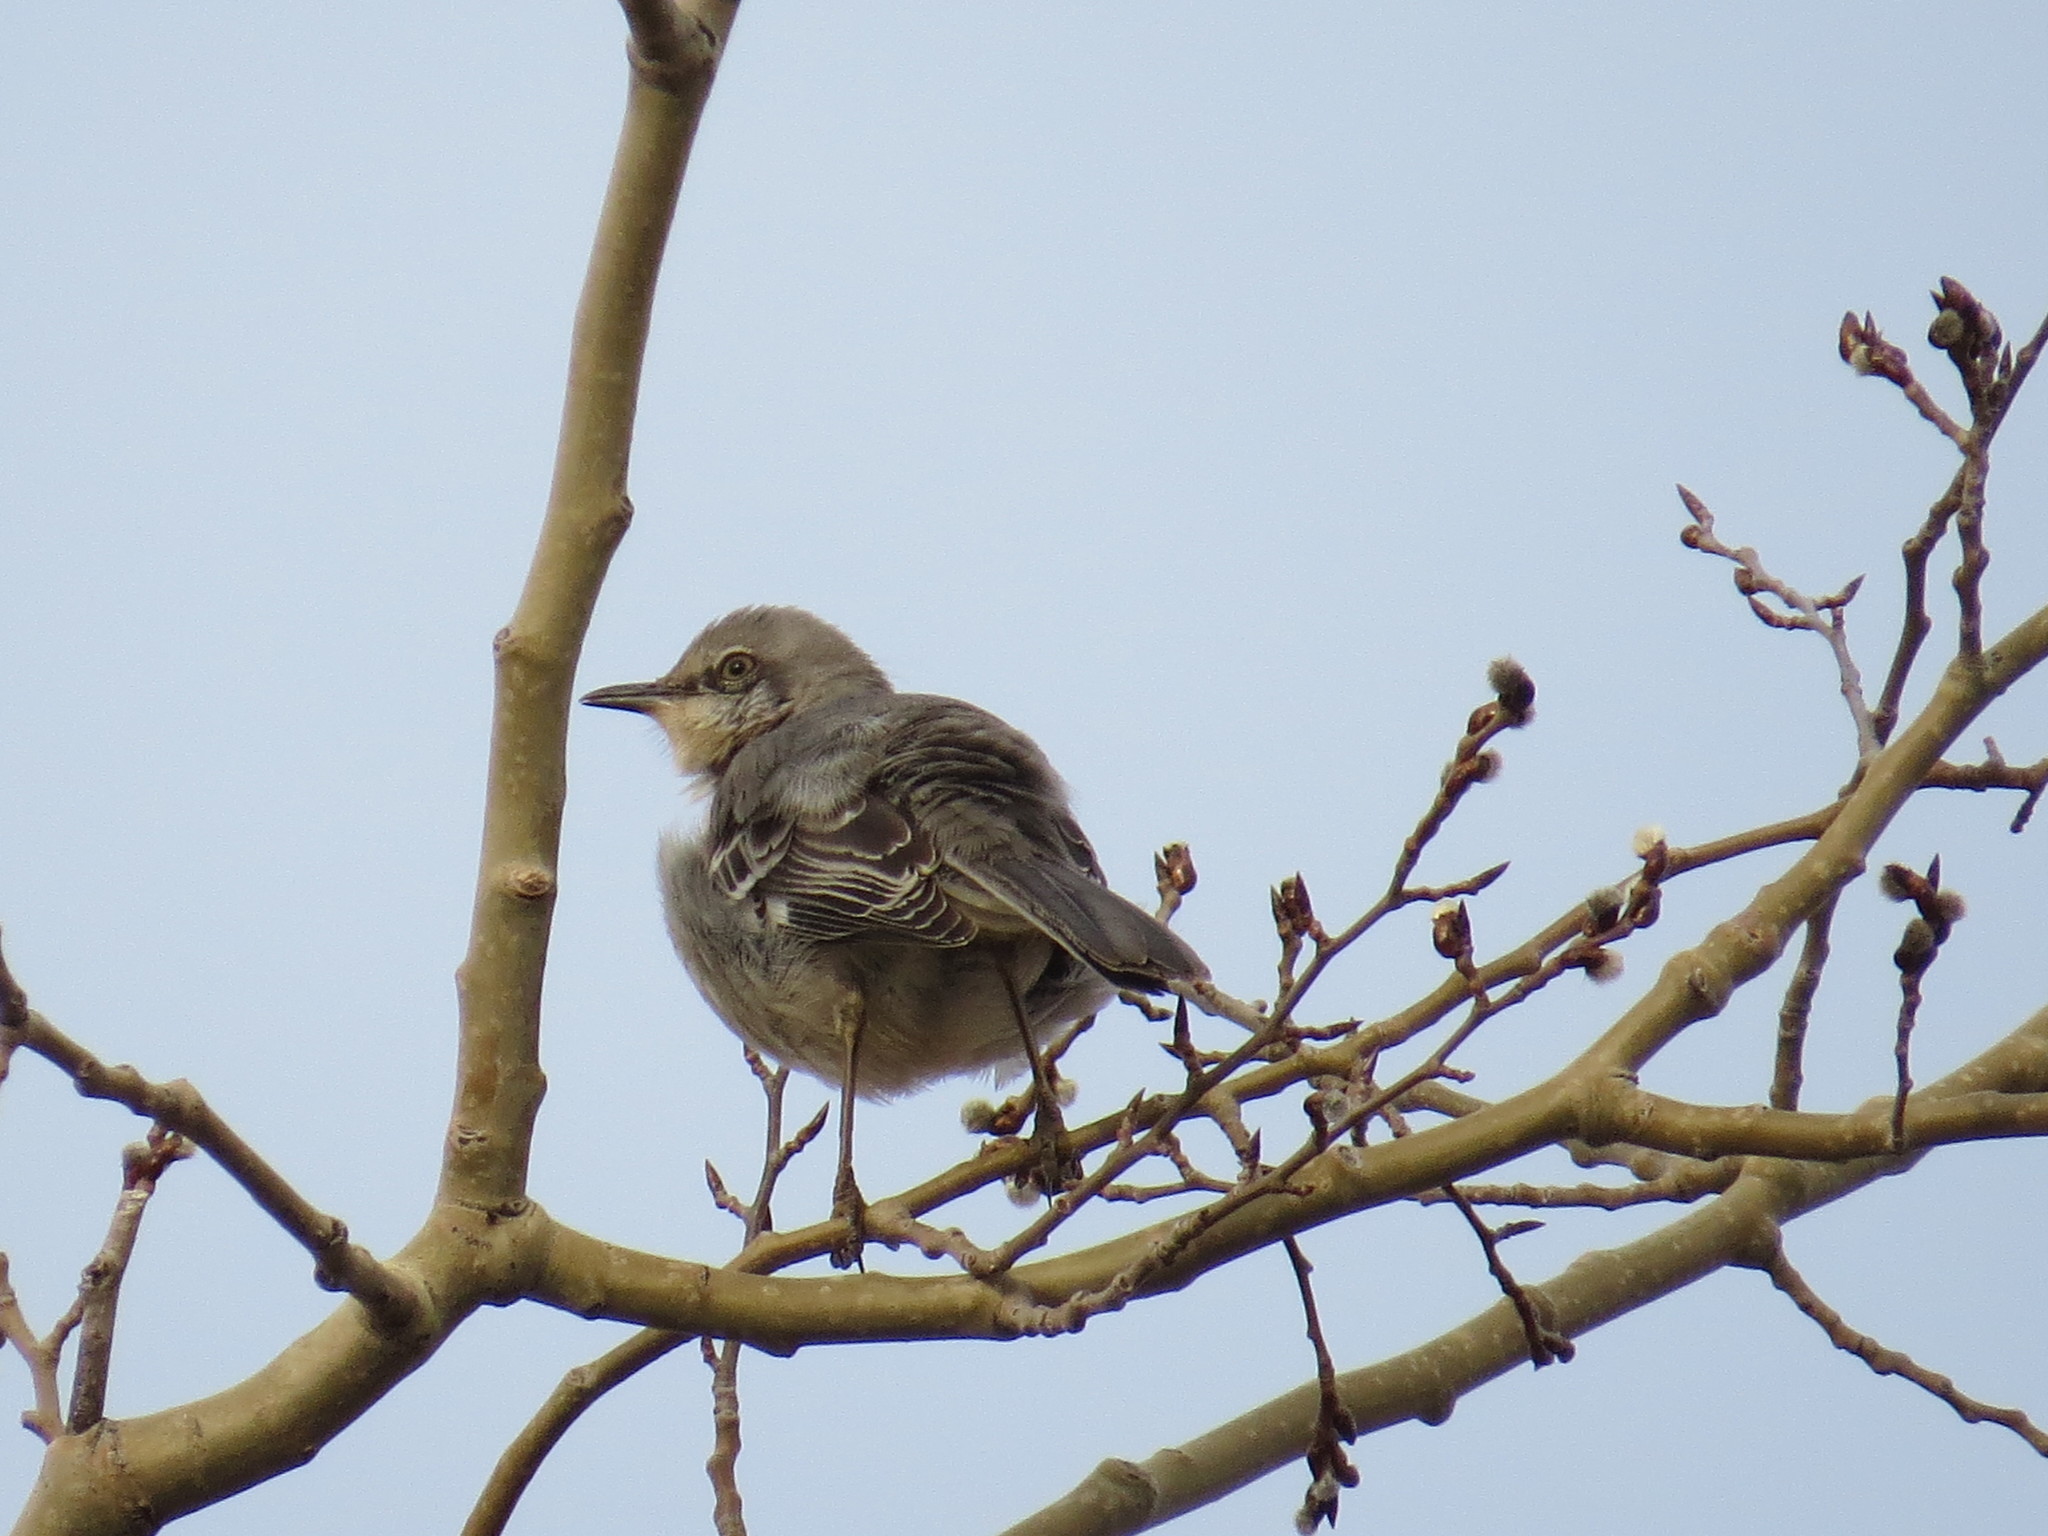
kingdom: Animalia
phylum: Chordata
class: Aves
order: Passeriformes
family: Mimidae
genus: Mimus
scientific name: Mimus polyglottos
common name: Northern mockingbird
